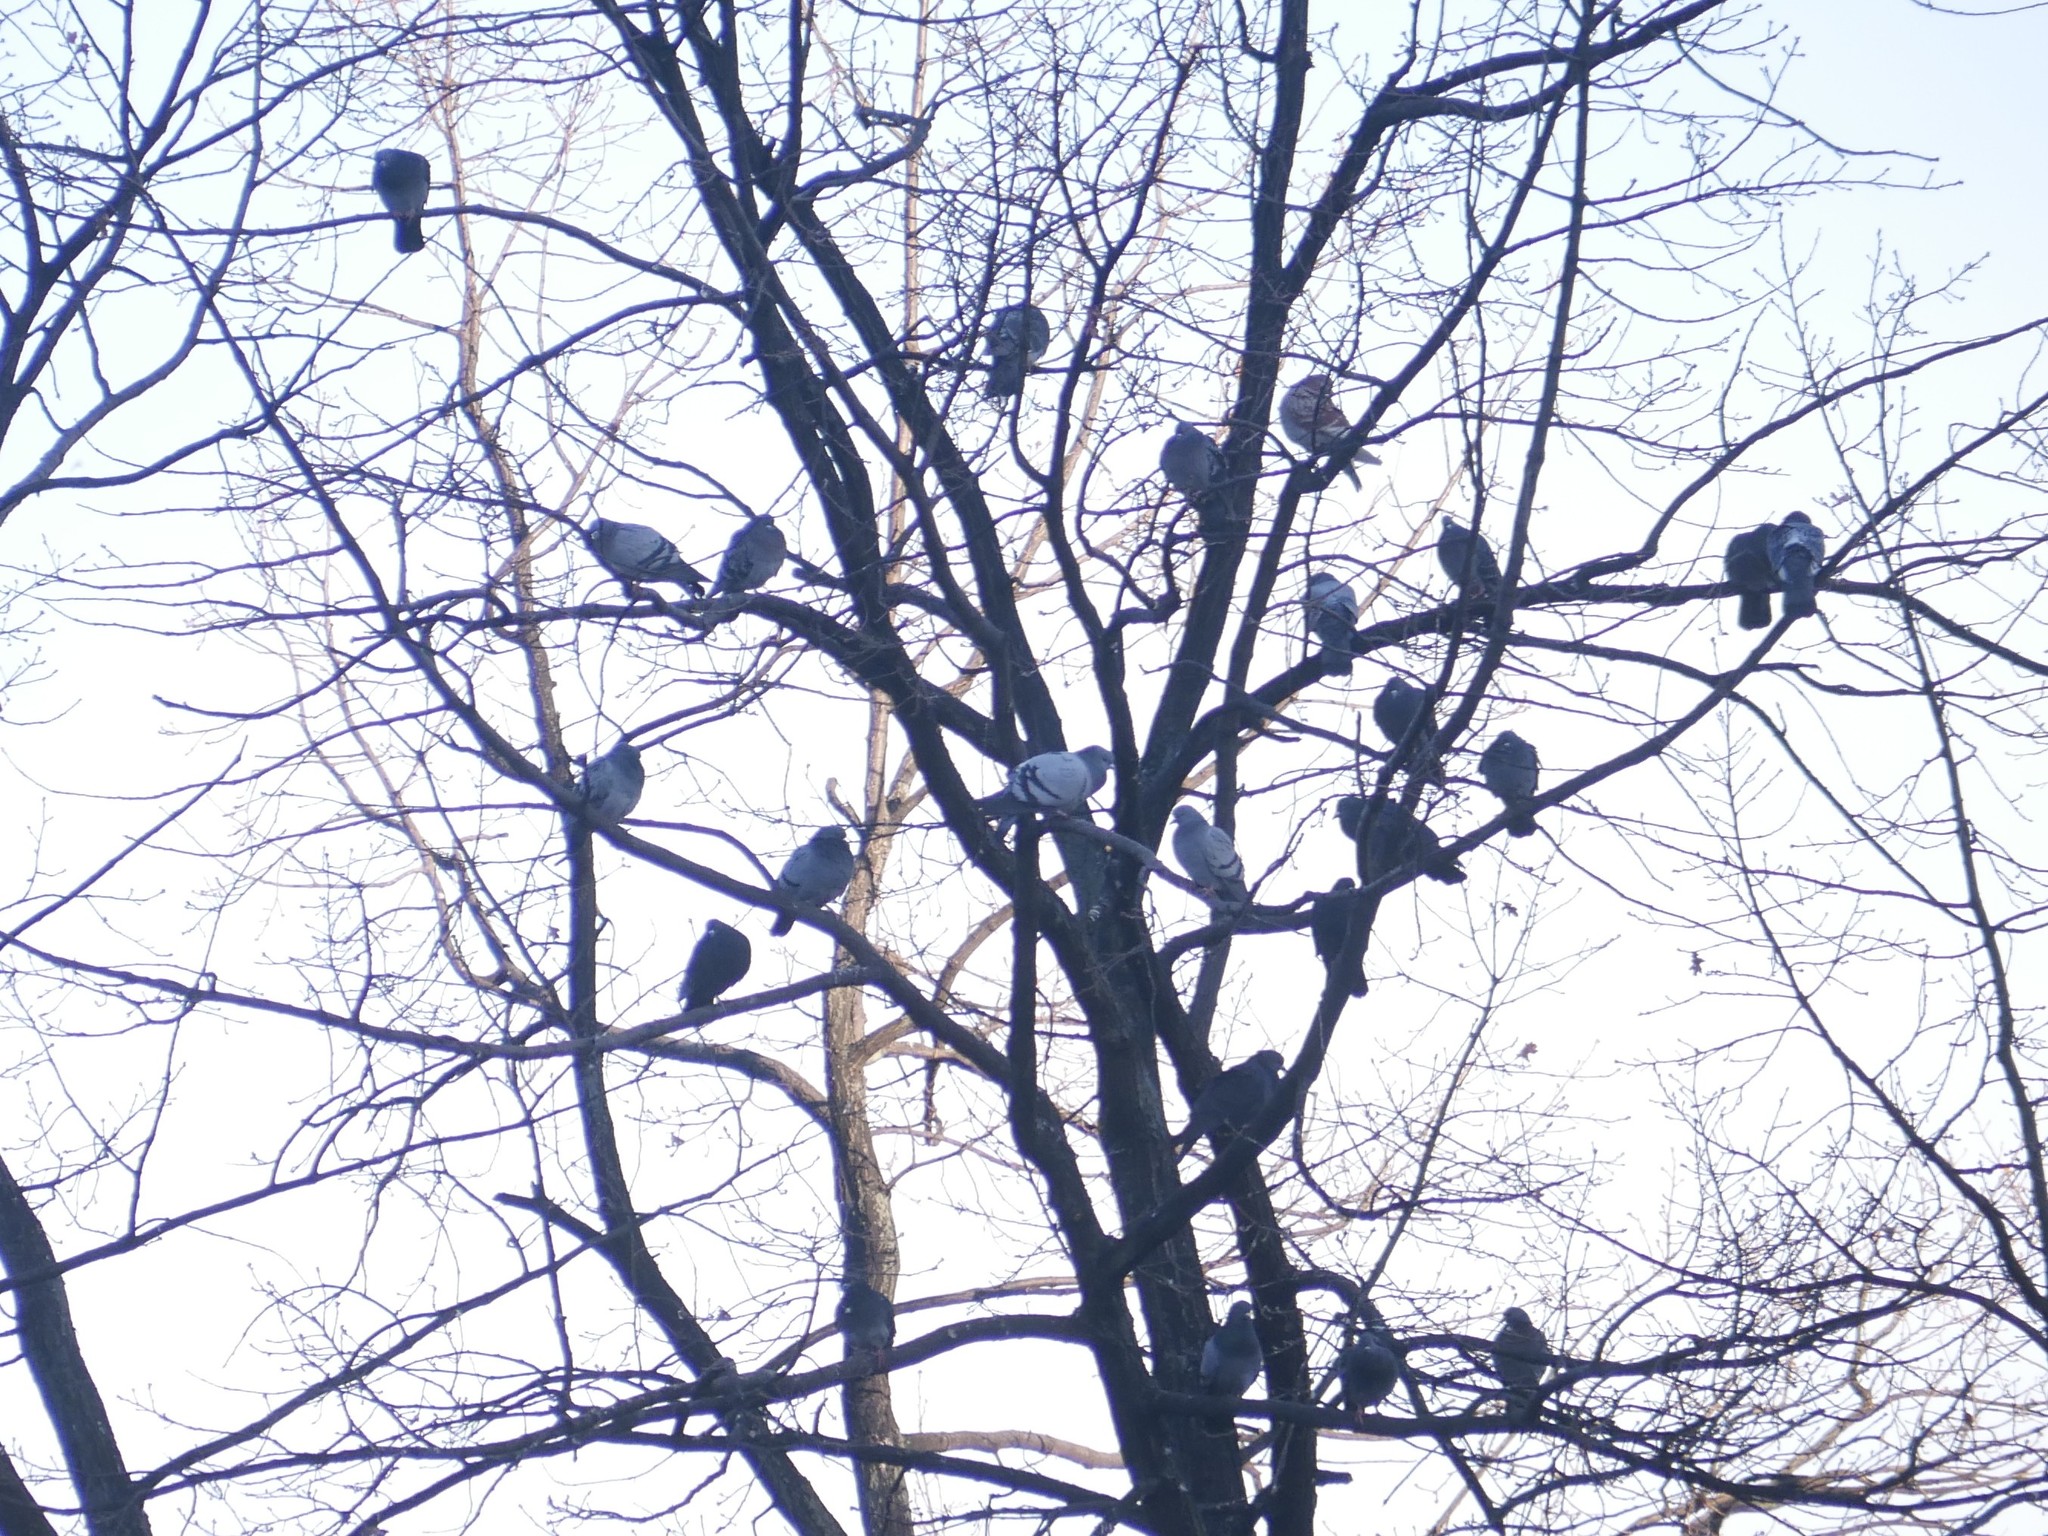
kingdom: Animalia
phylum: Chordata
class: Aves
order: Columbiformes
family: Columbidae
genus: Columba
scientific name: Columba livia
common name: Rock pigeon
